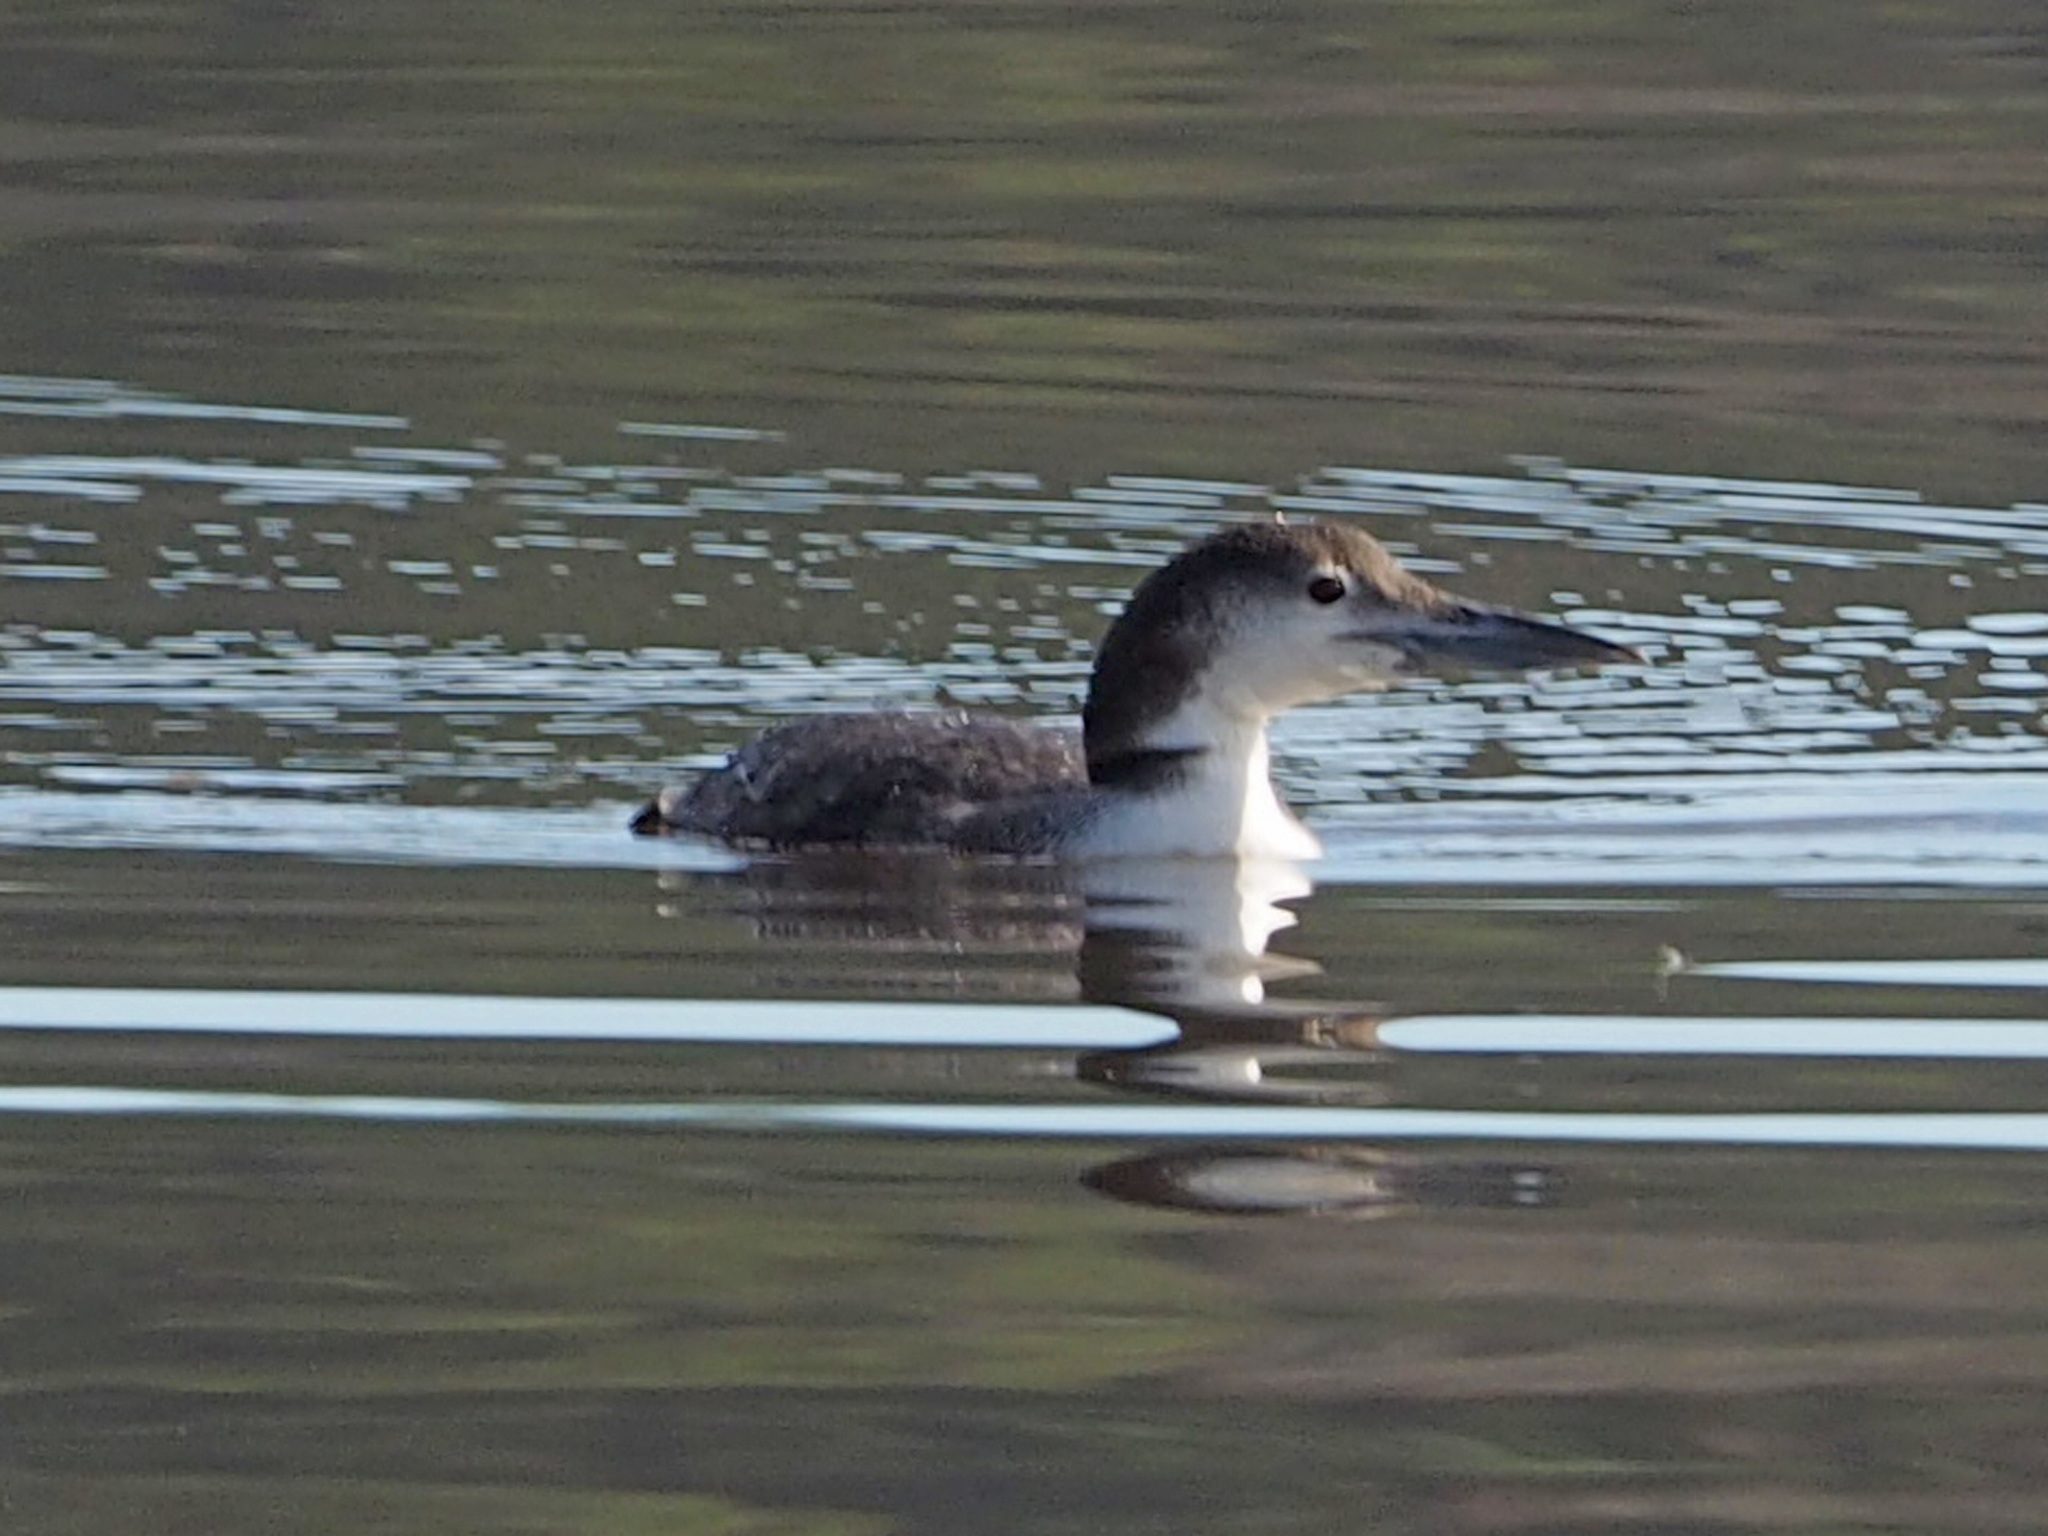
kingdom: Animalia
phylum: Chordata
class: Aves
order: Gaviiformes
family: Gaviidae
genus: Gavia
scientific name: Gavia immer
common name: Common loon
